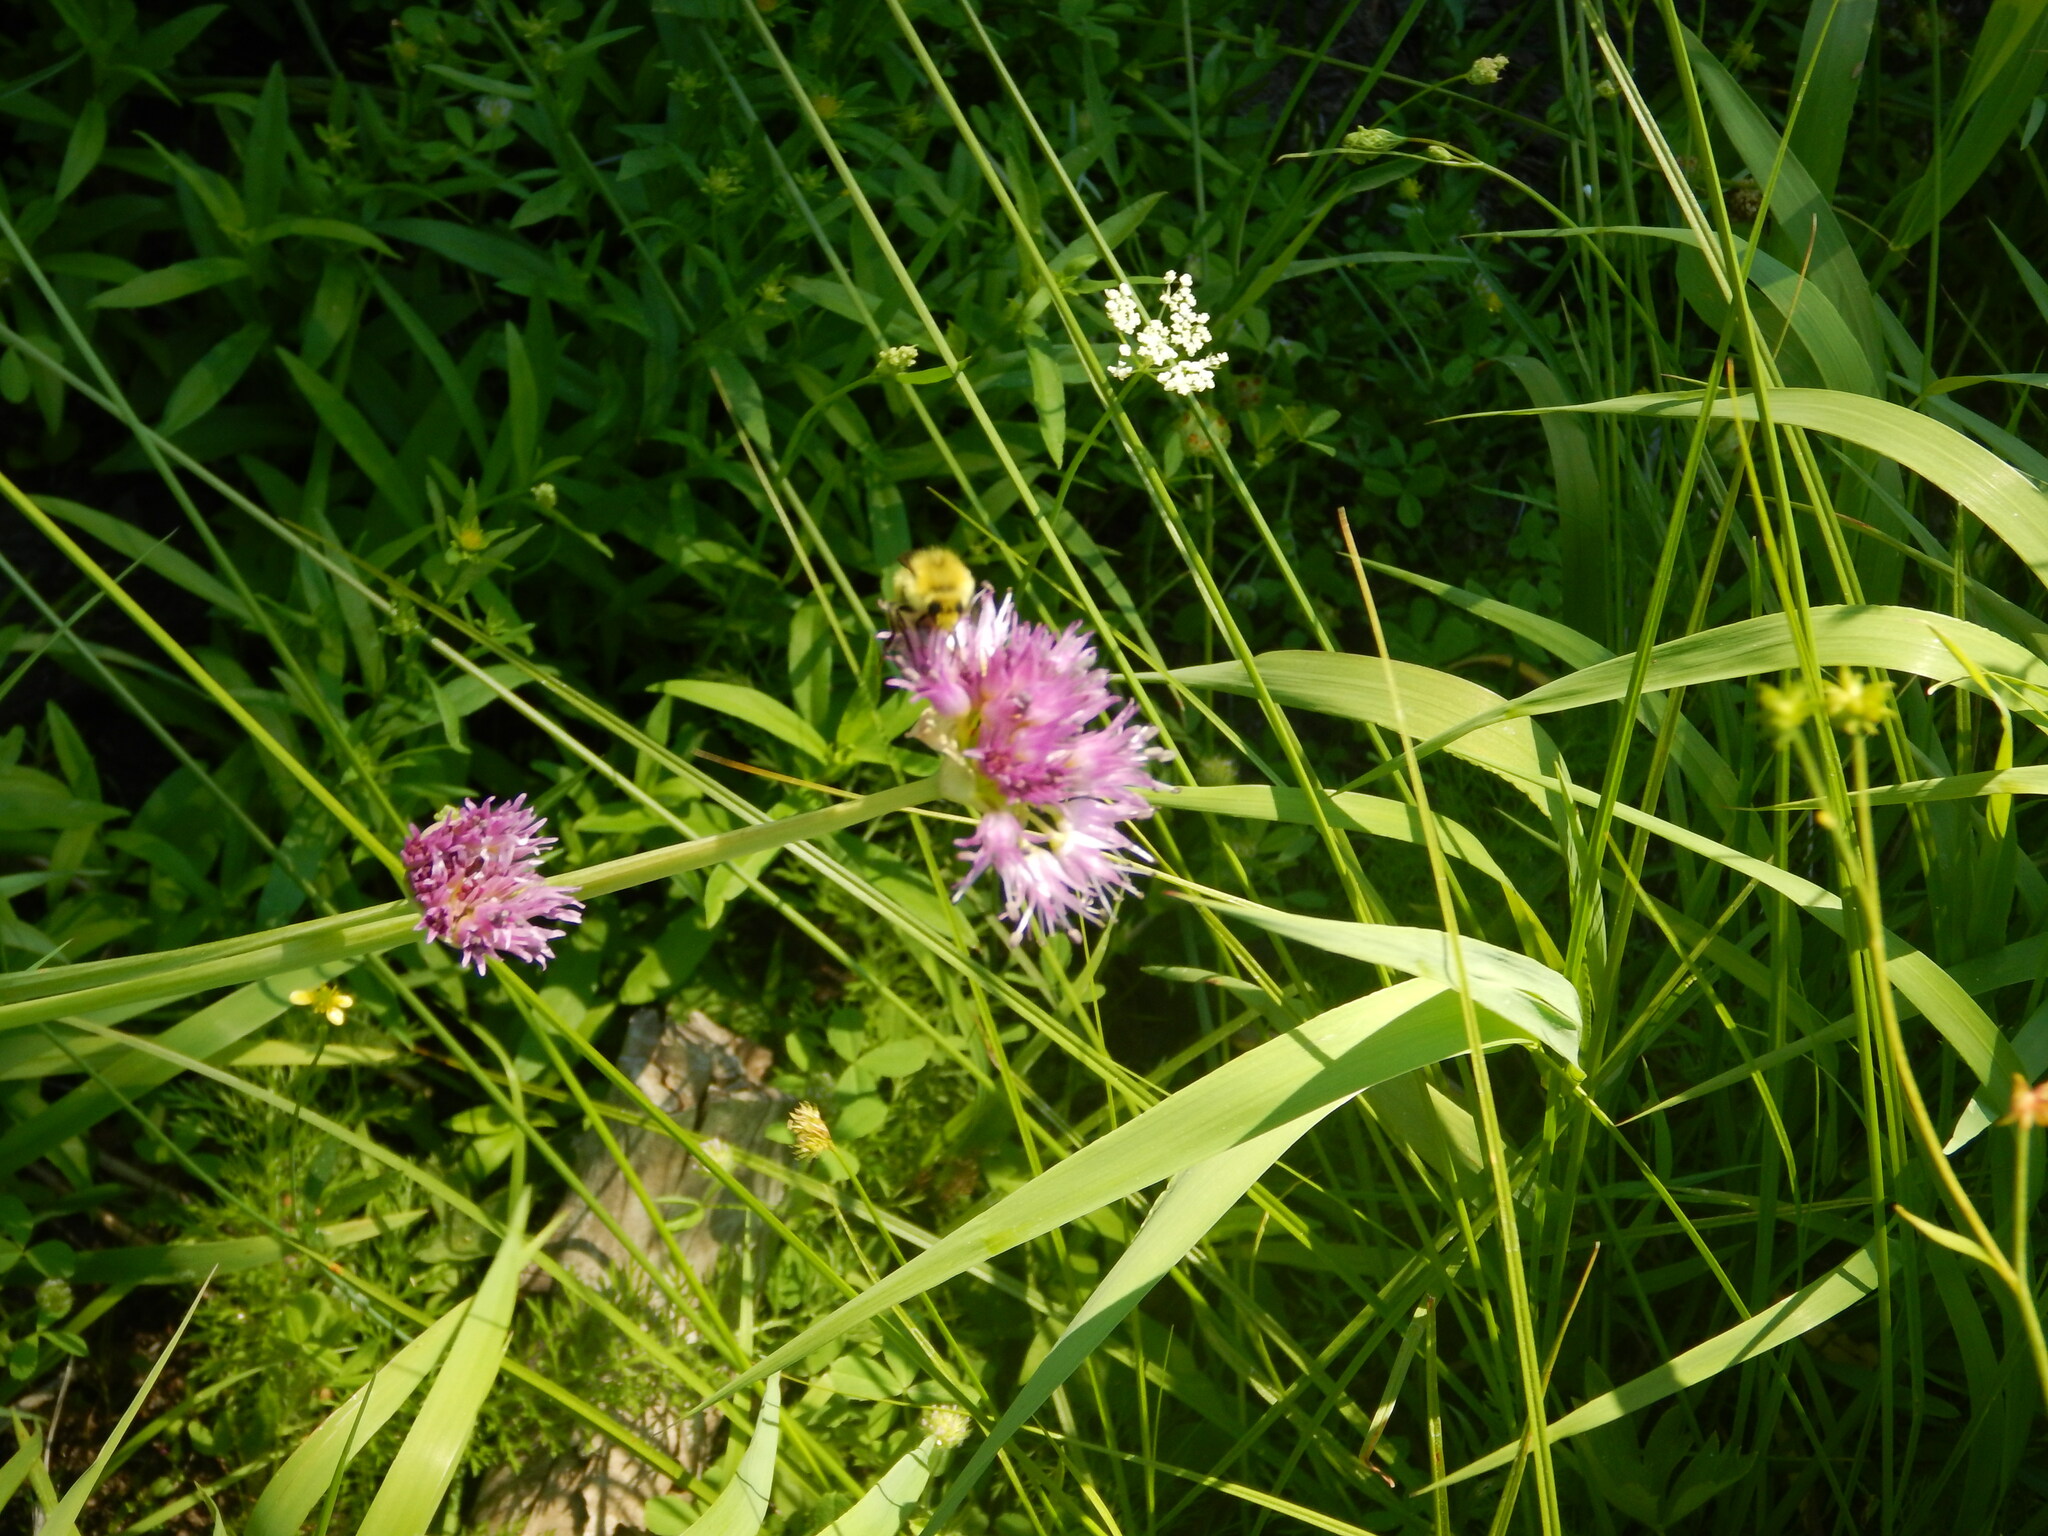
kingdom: Plantae
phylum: Tracheophyta
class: Liliopsida
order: Asparagales
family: Amaryllidaceae
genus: Allium
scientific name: Allium validum
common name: Pacific mountain onion
